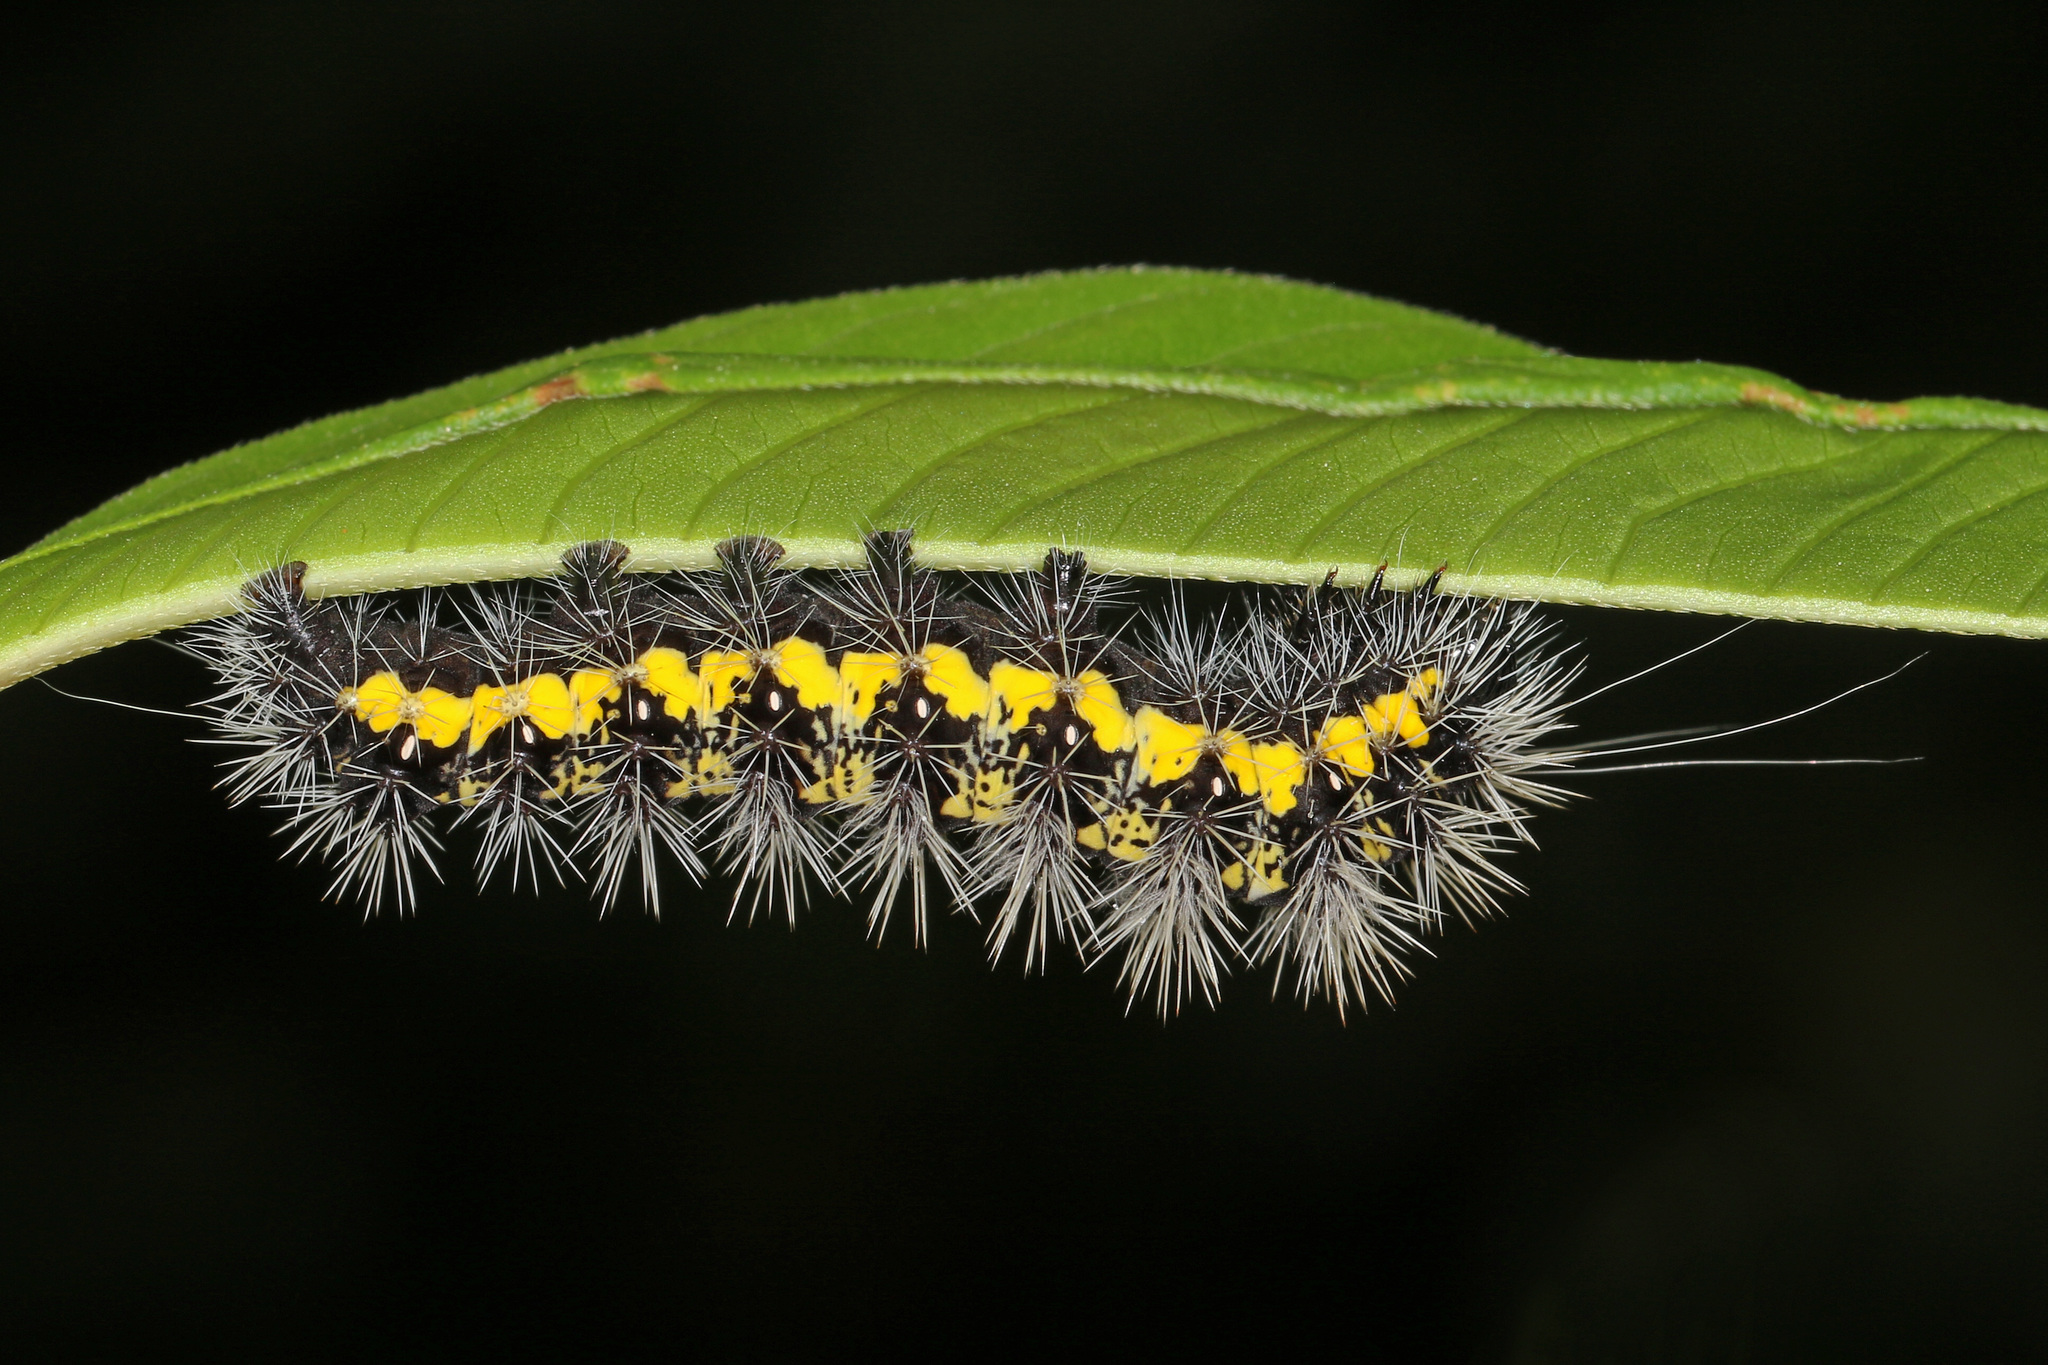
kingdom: Animalia
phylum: Arthropoda
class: Insecta
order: Lepidoptera
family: Noctuidae
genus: Acronicta
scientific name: Acronicta oblinita
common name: Smeared dagger
